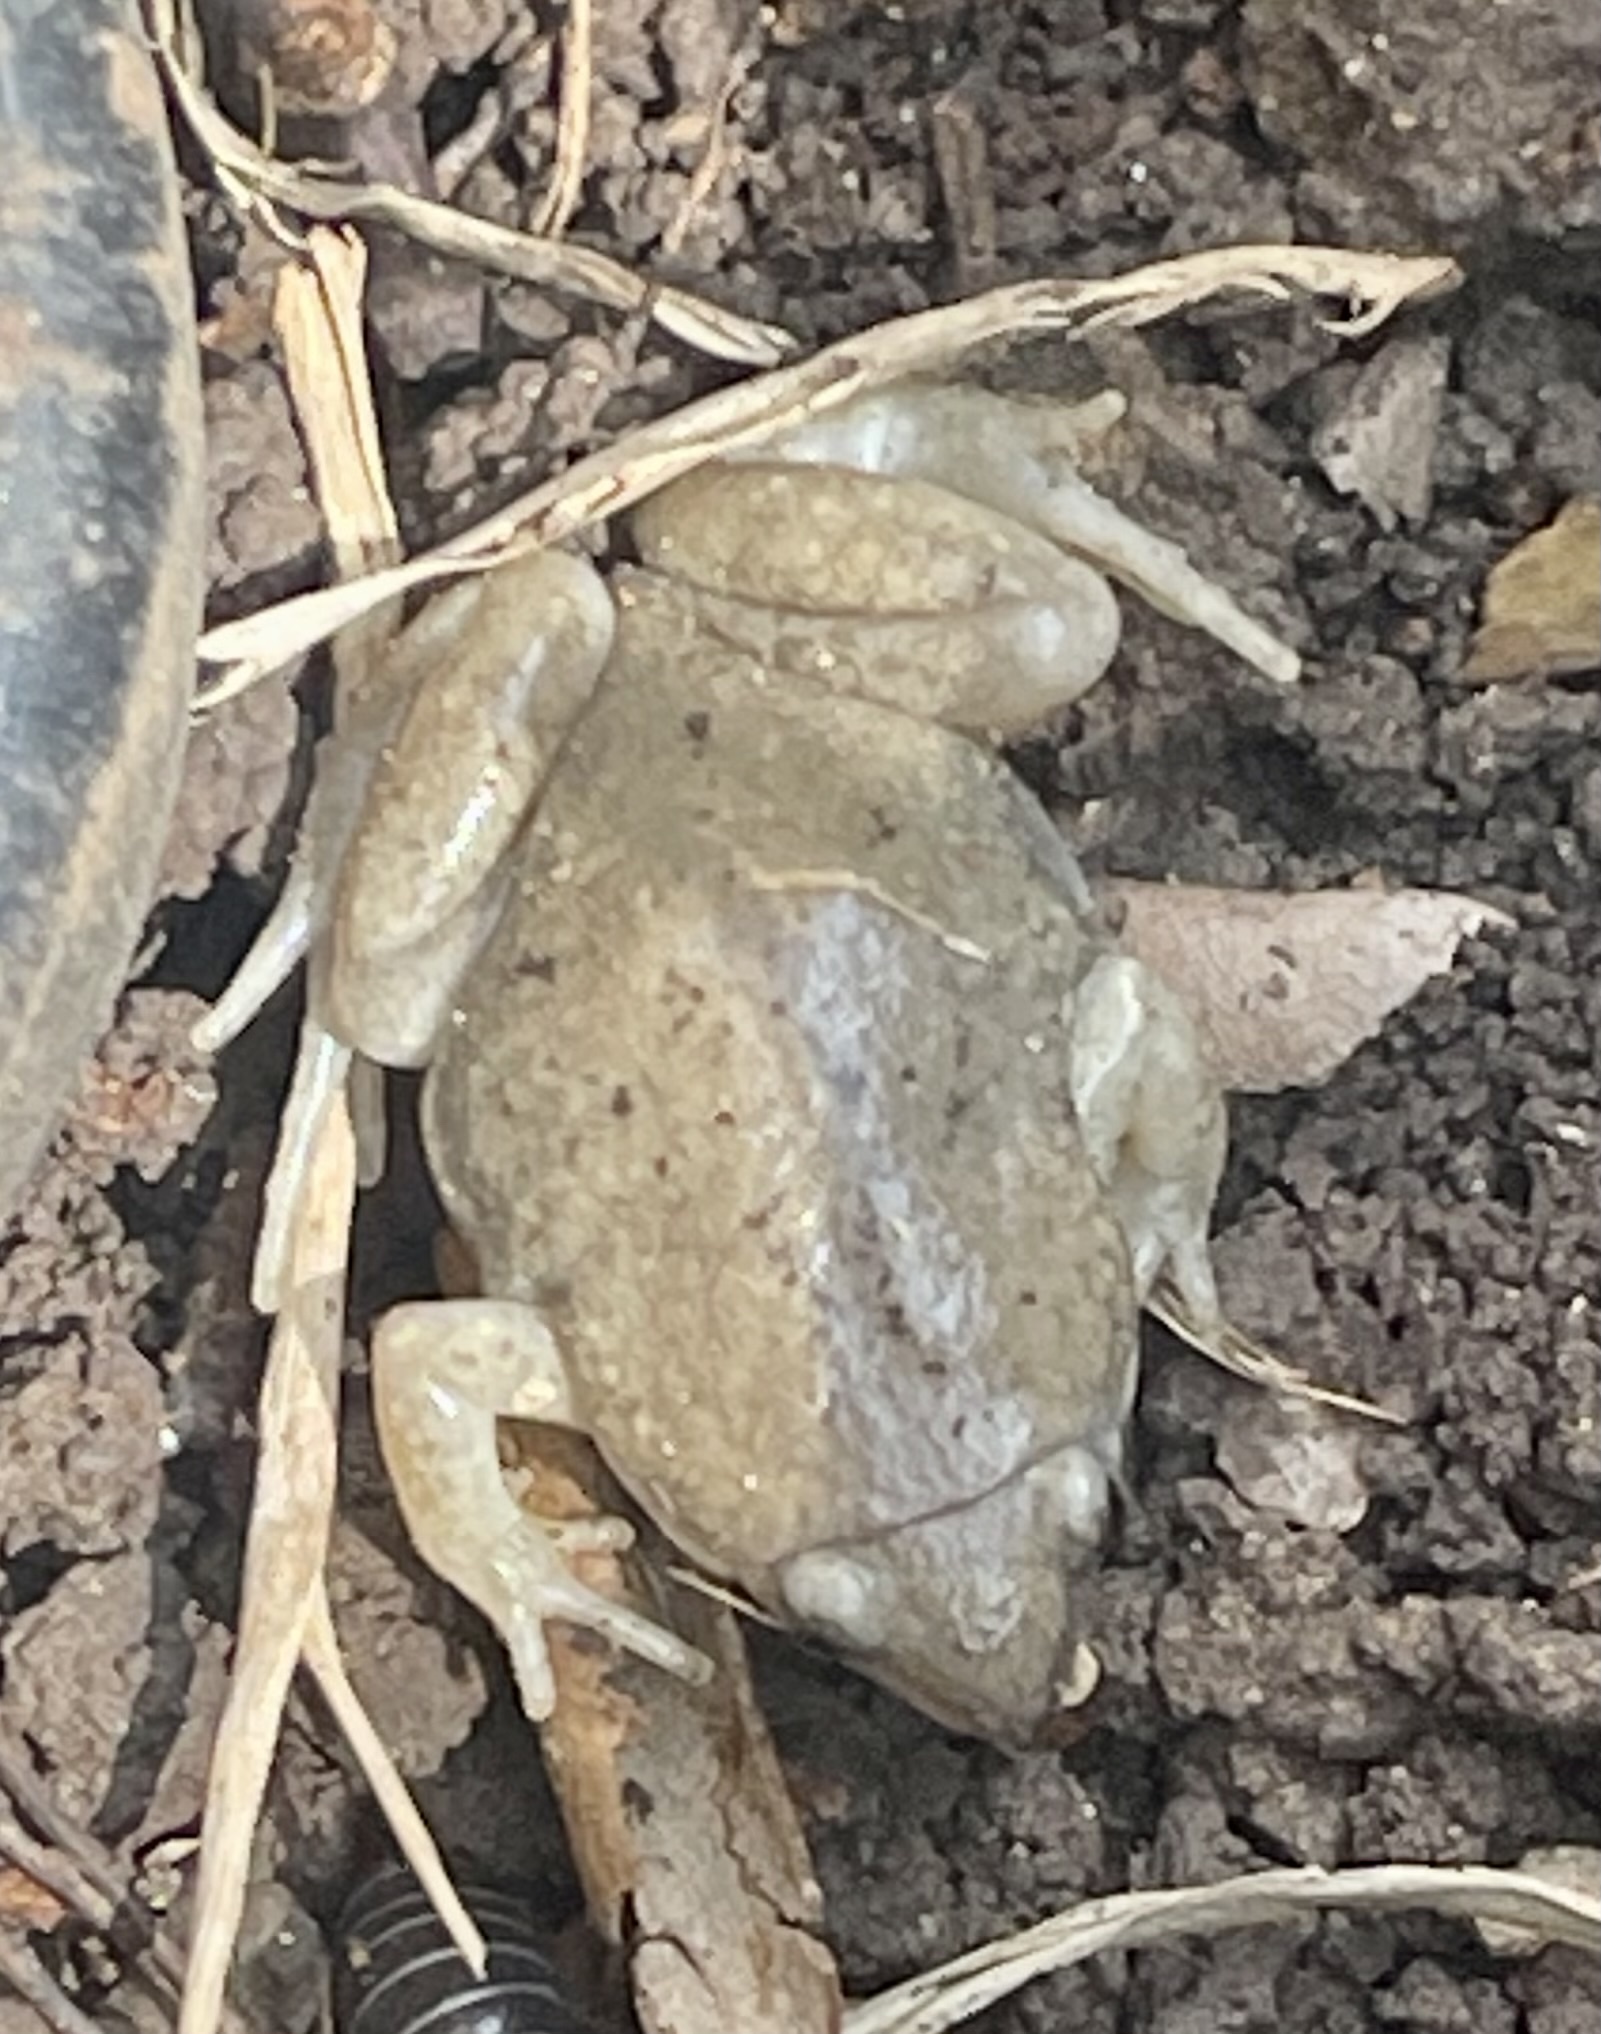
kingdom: Animalia
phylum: Chordata
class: Amphibia
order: Anura
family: Microhylidae
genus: Gastrophryne
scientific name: Gastrophryne olivacea
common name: Great plains narrow-mouthed toad
